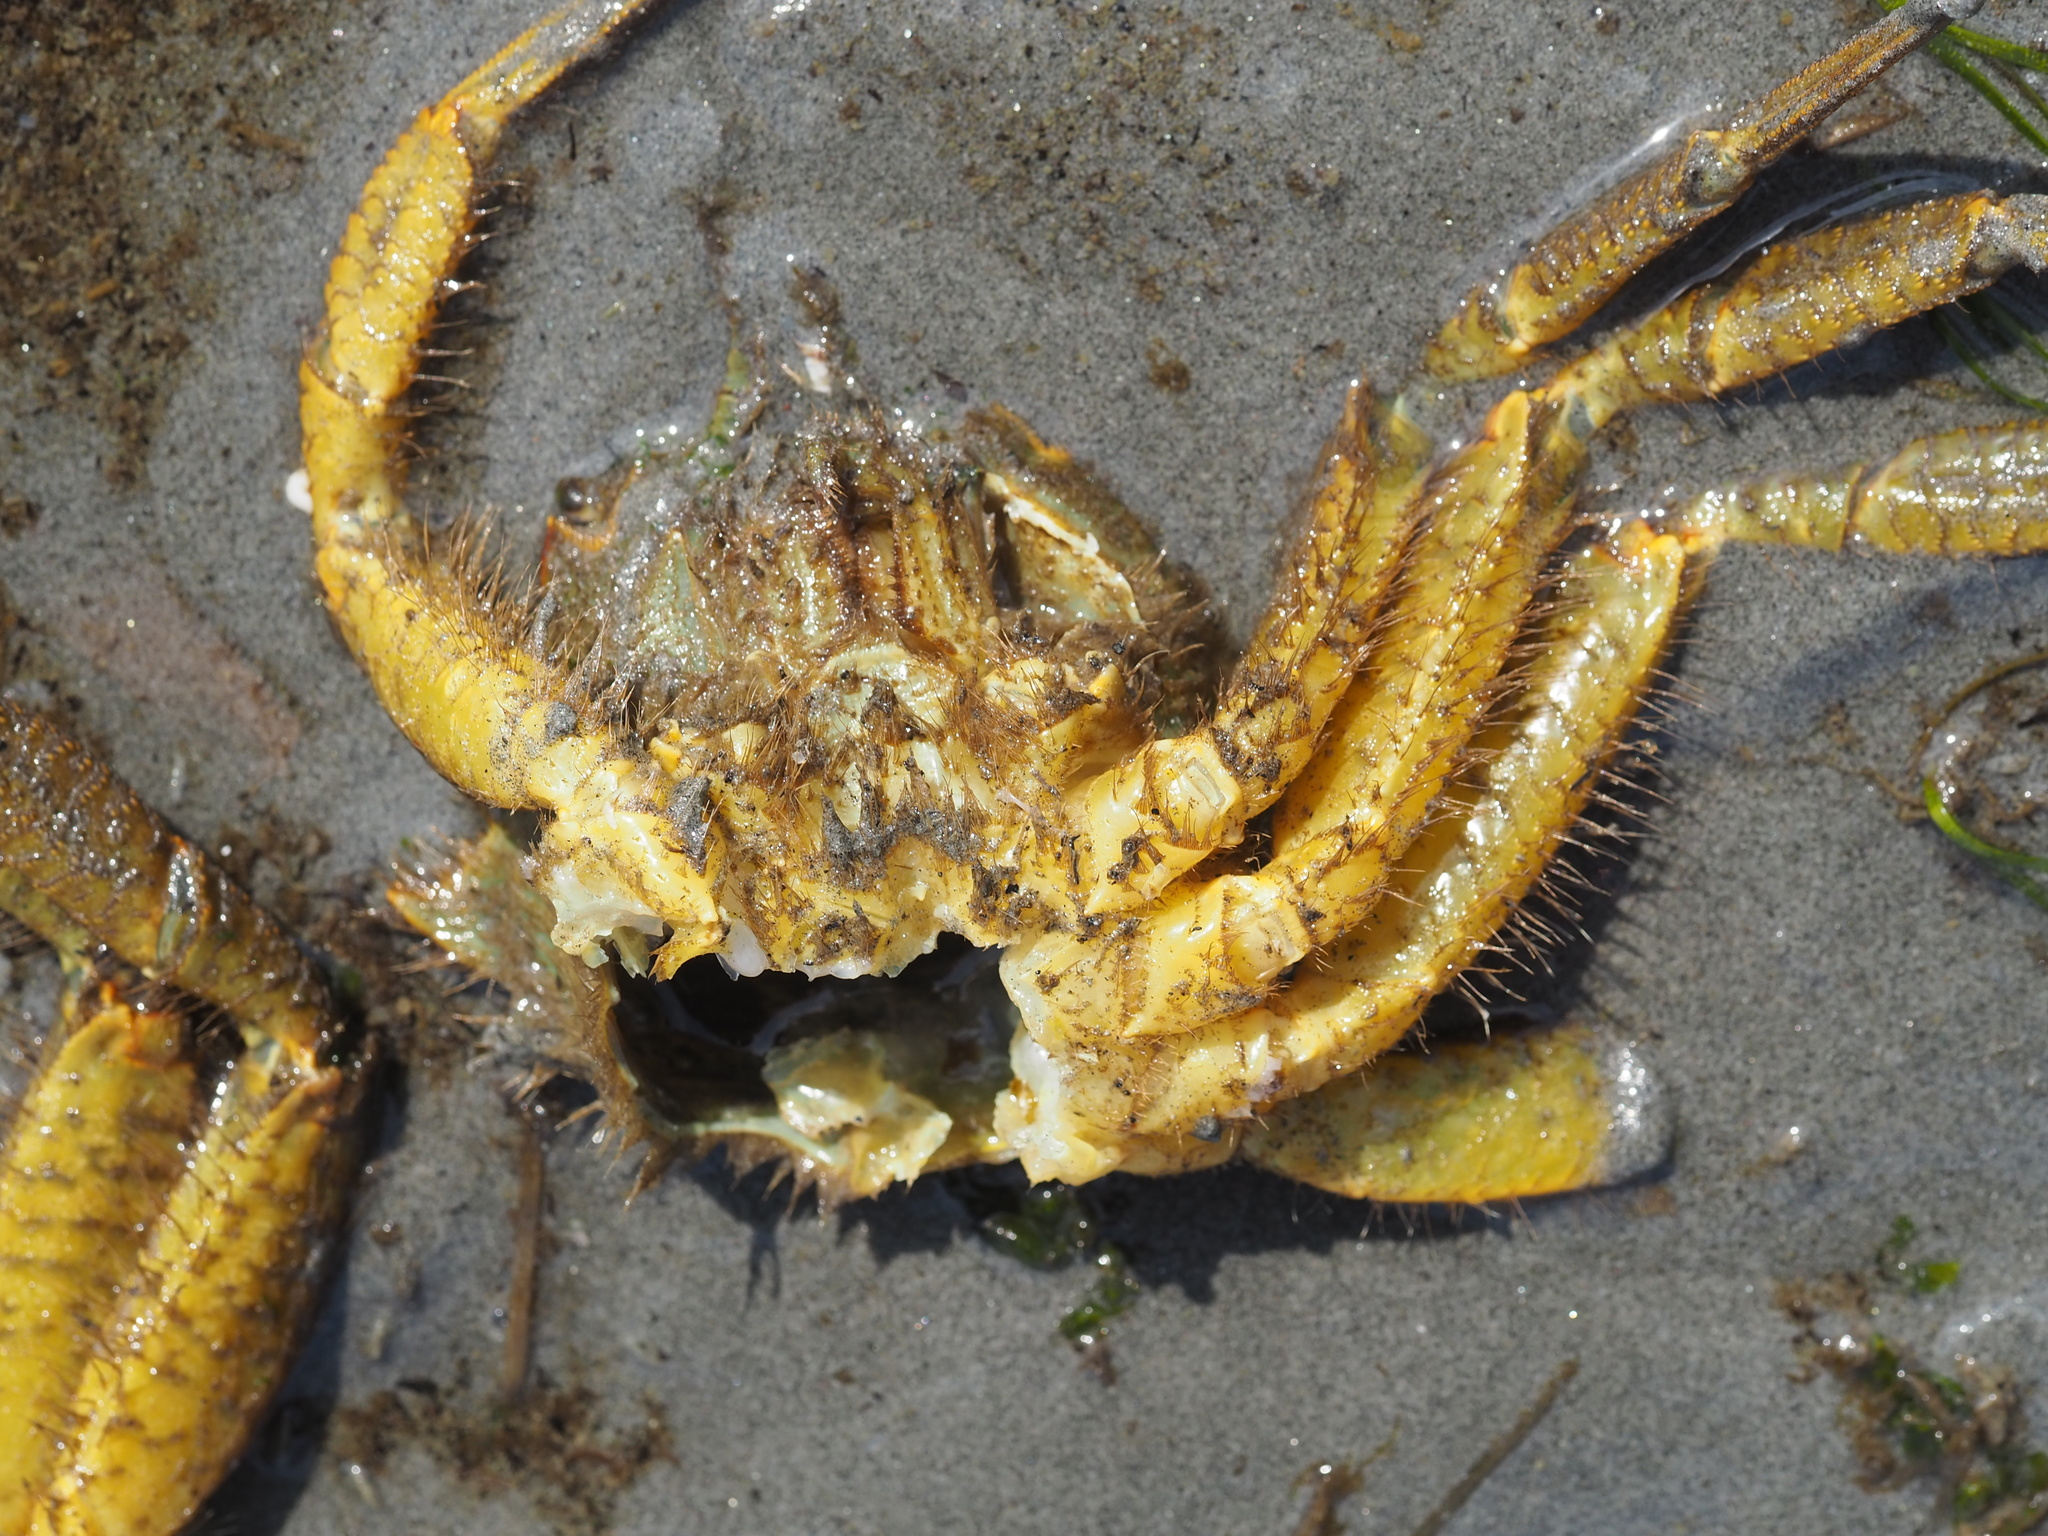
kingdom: Animalia
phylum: Arthropoda
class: Malacostraca
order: Decapoda
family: Cheiragonidae
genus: Telmessus
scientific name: Telmessus cheiragonus
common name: Helmet crab
